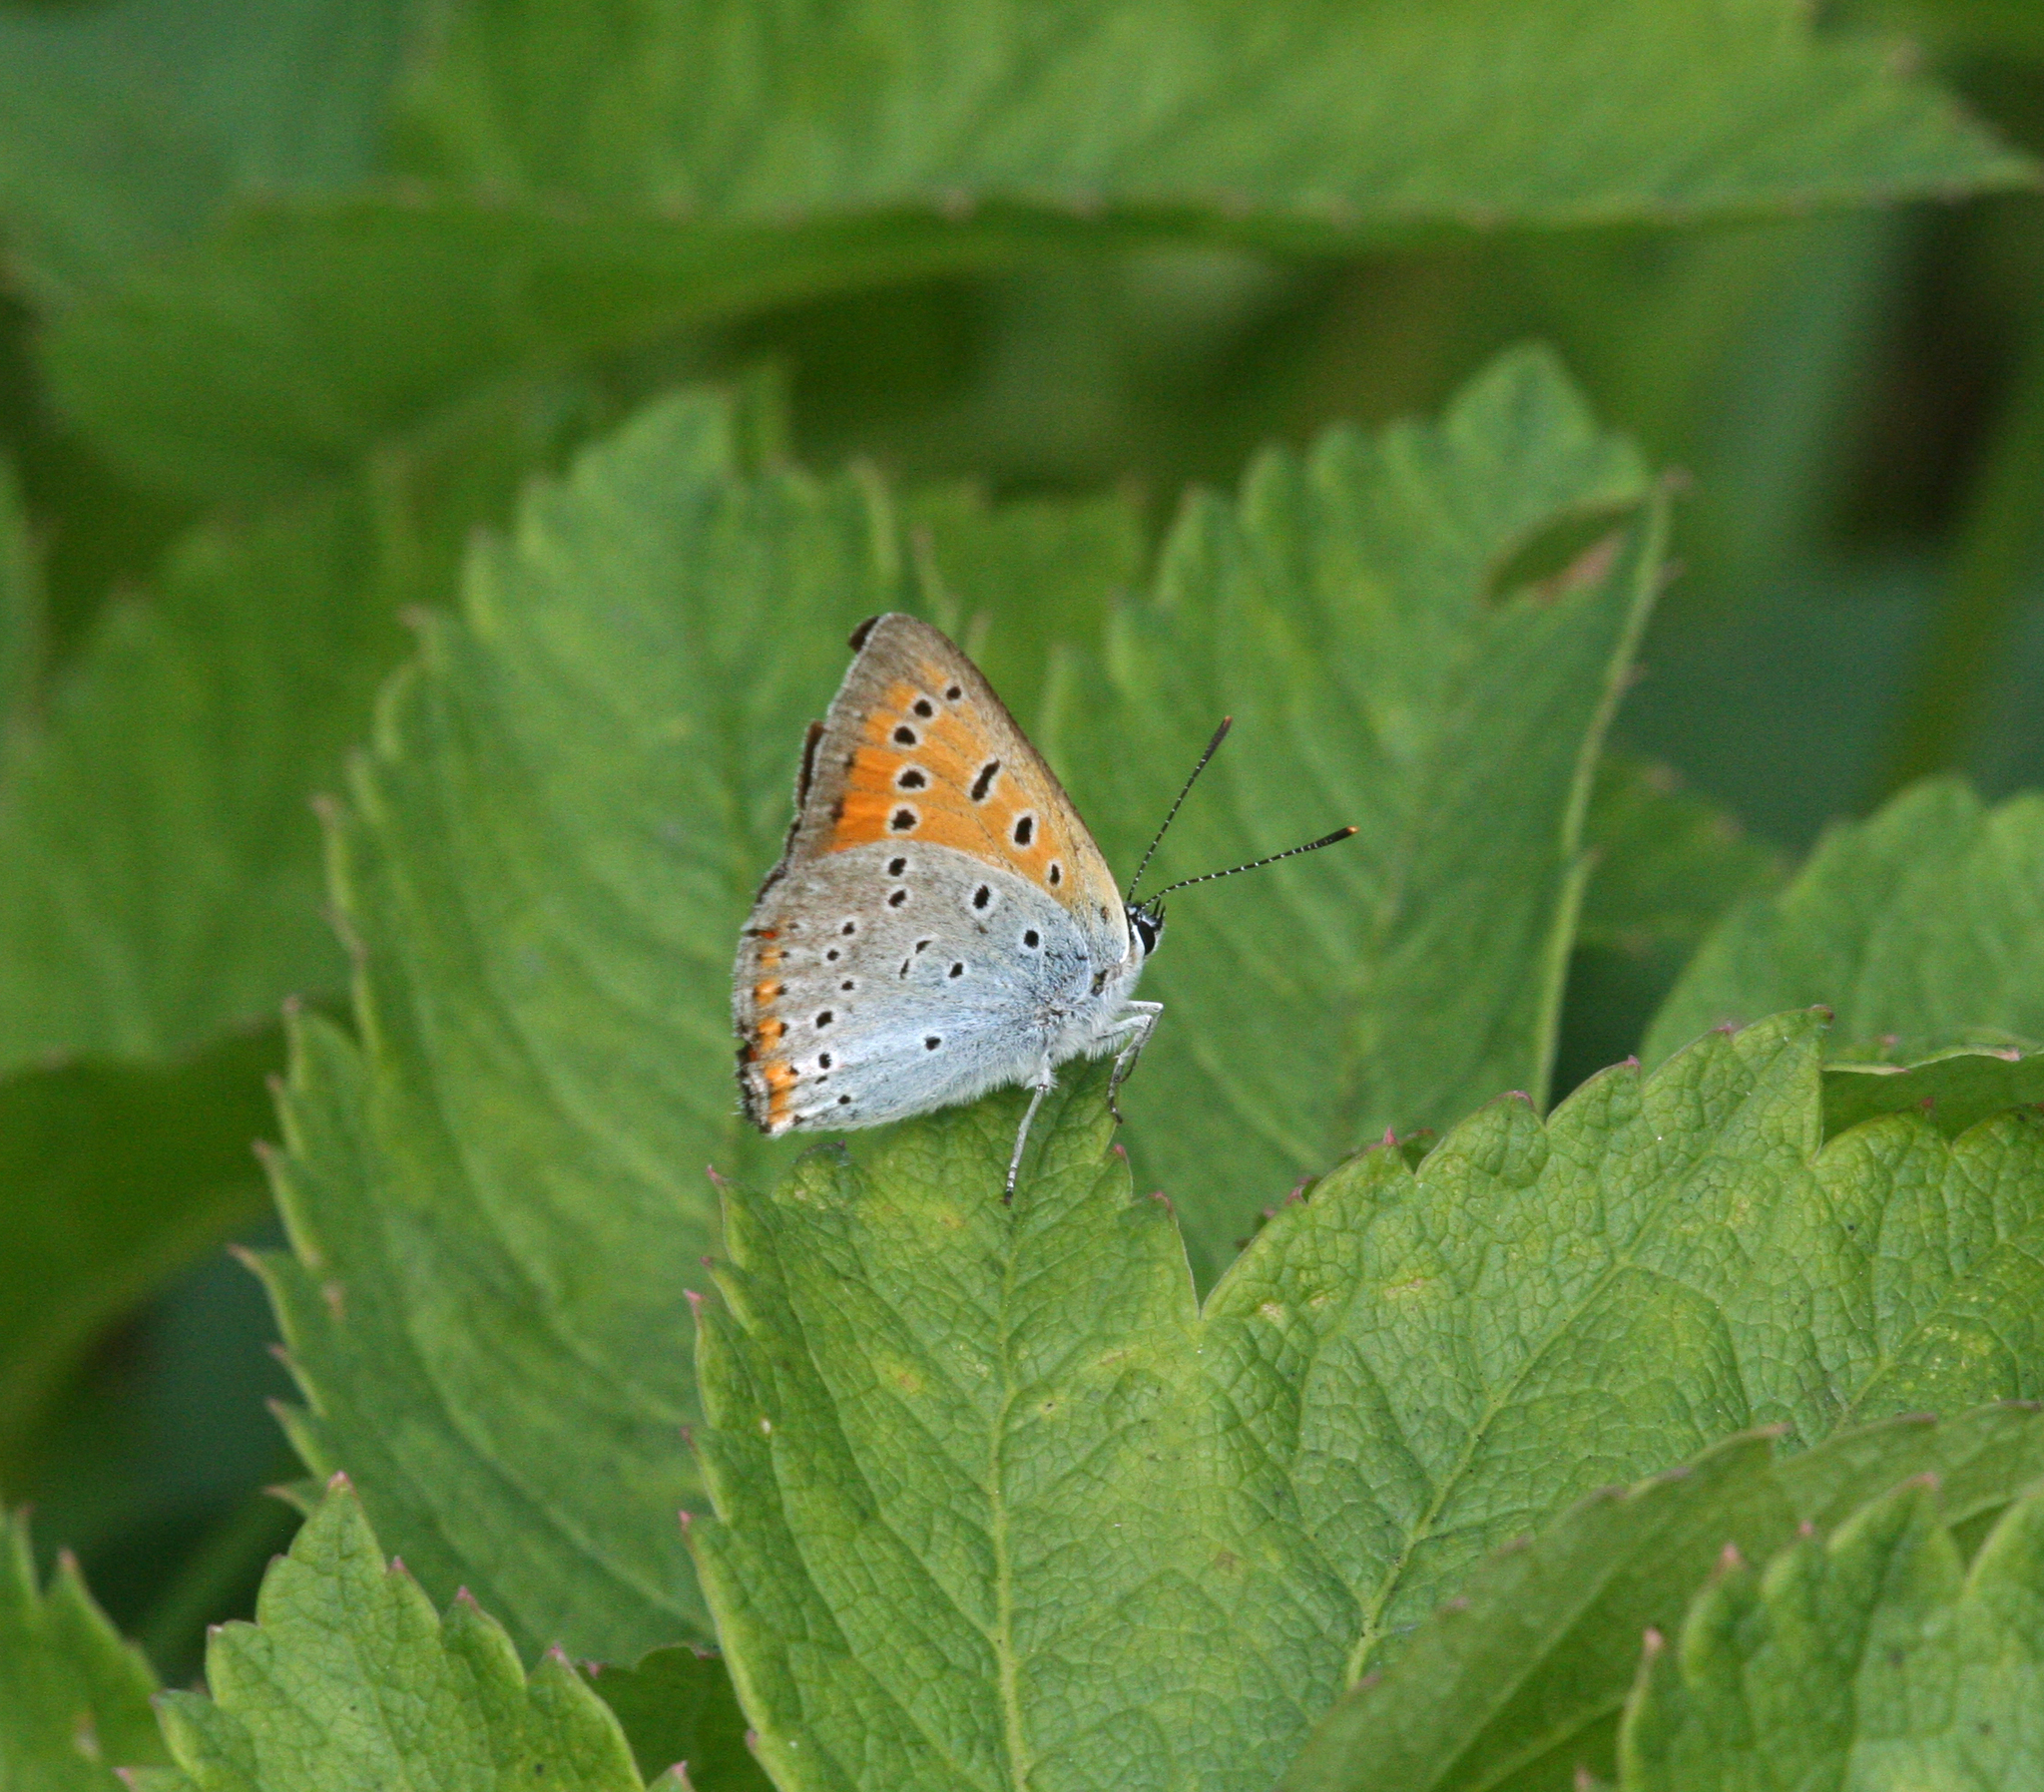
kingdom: Animalia
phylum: Arthropoda
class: Insecta
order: Lepidoptera
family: Lycaenidae
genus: Lycaena
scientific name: Lycaena dispar
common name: Large copper
